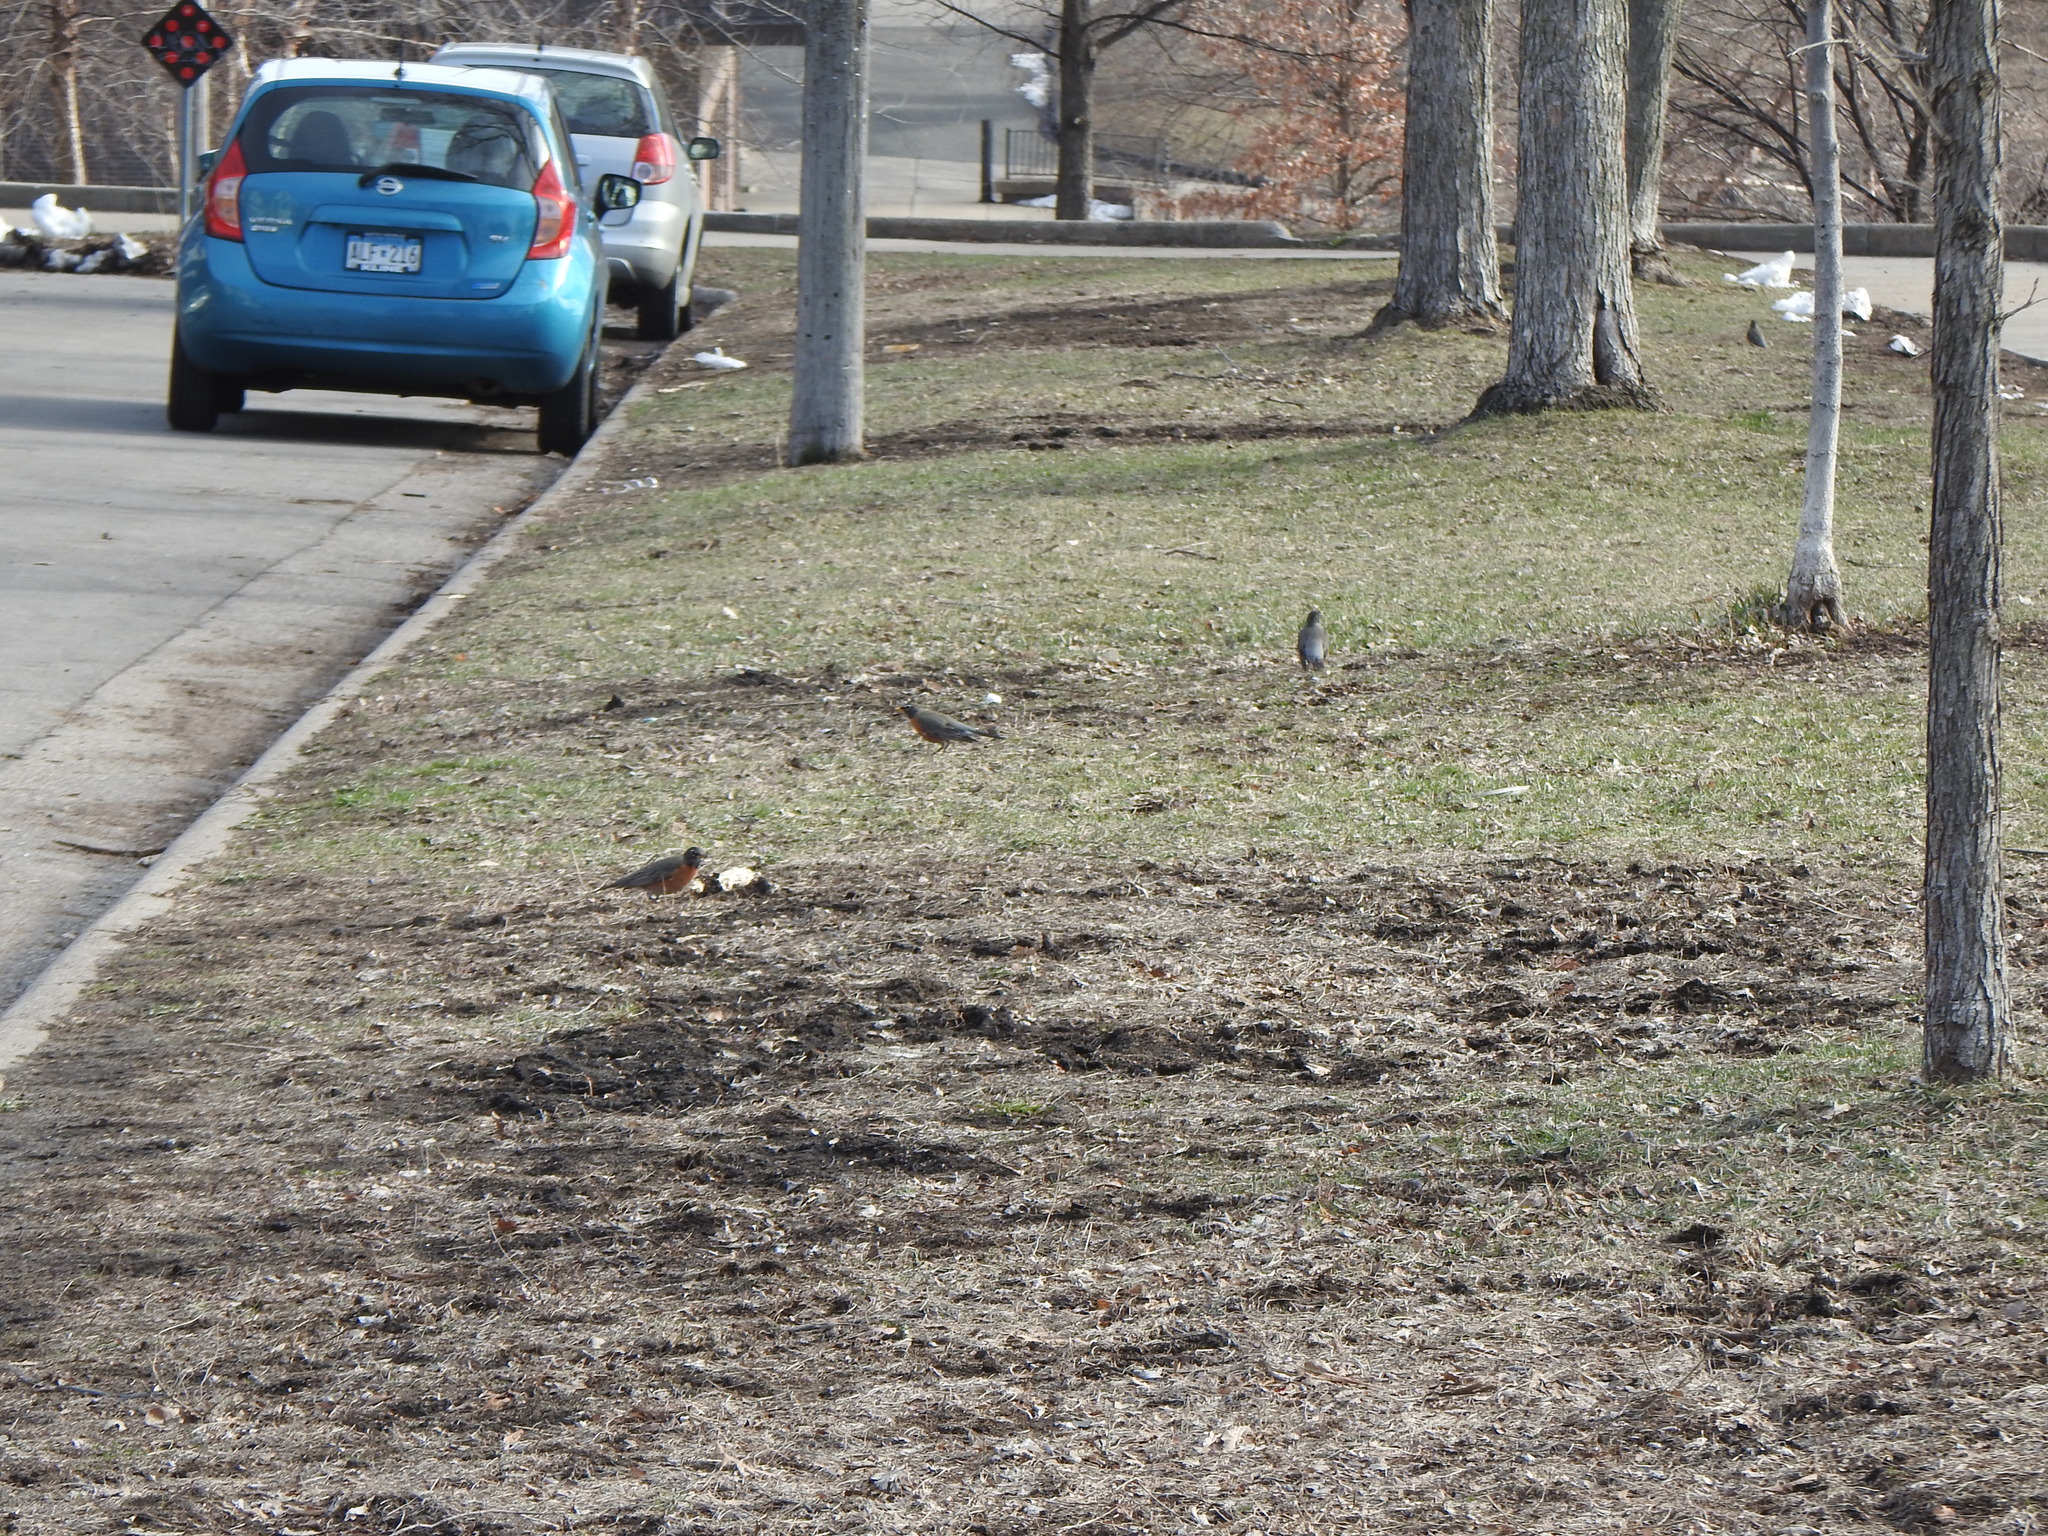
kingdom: Animalia
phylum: Chordata
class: Aves
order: Passeriformes
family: Turdidae
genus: Turdus
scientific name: Turdus migratorius
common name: American robin
